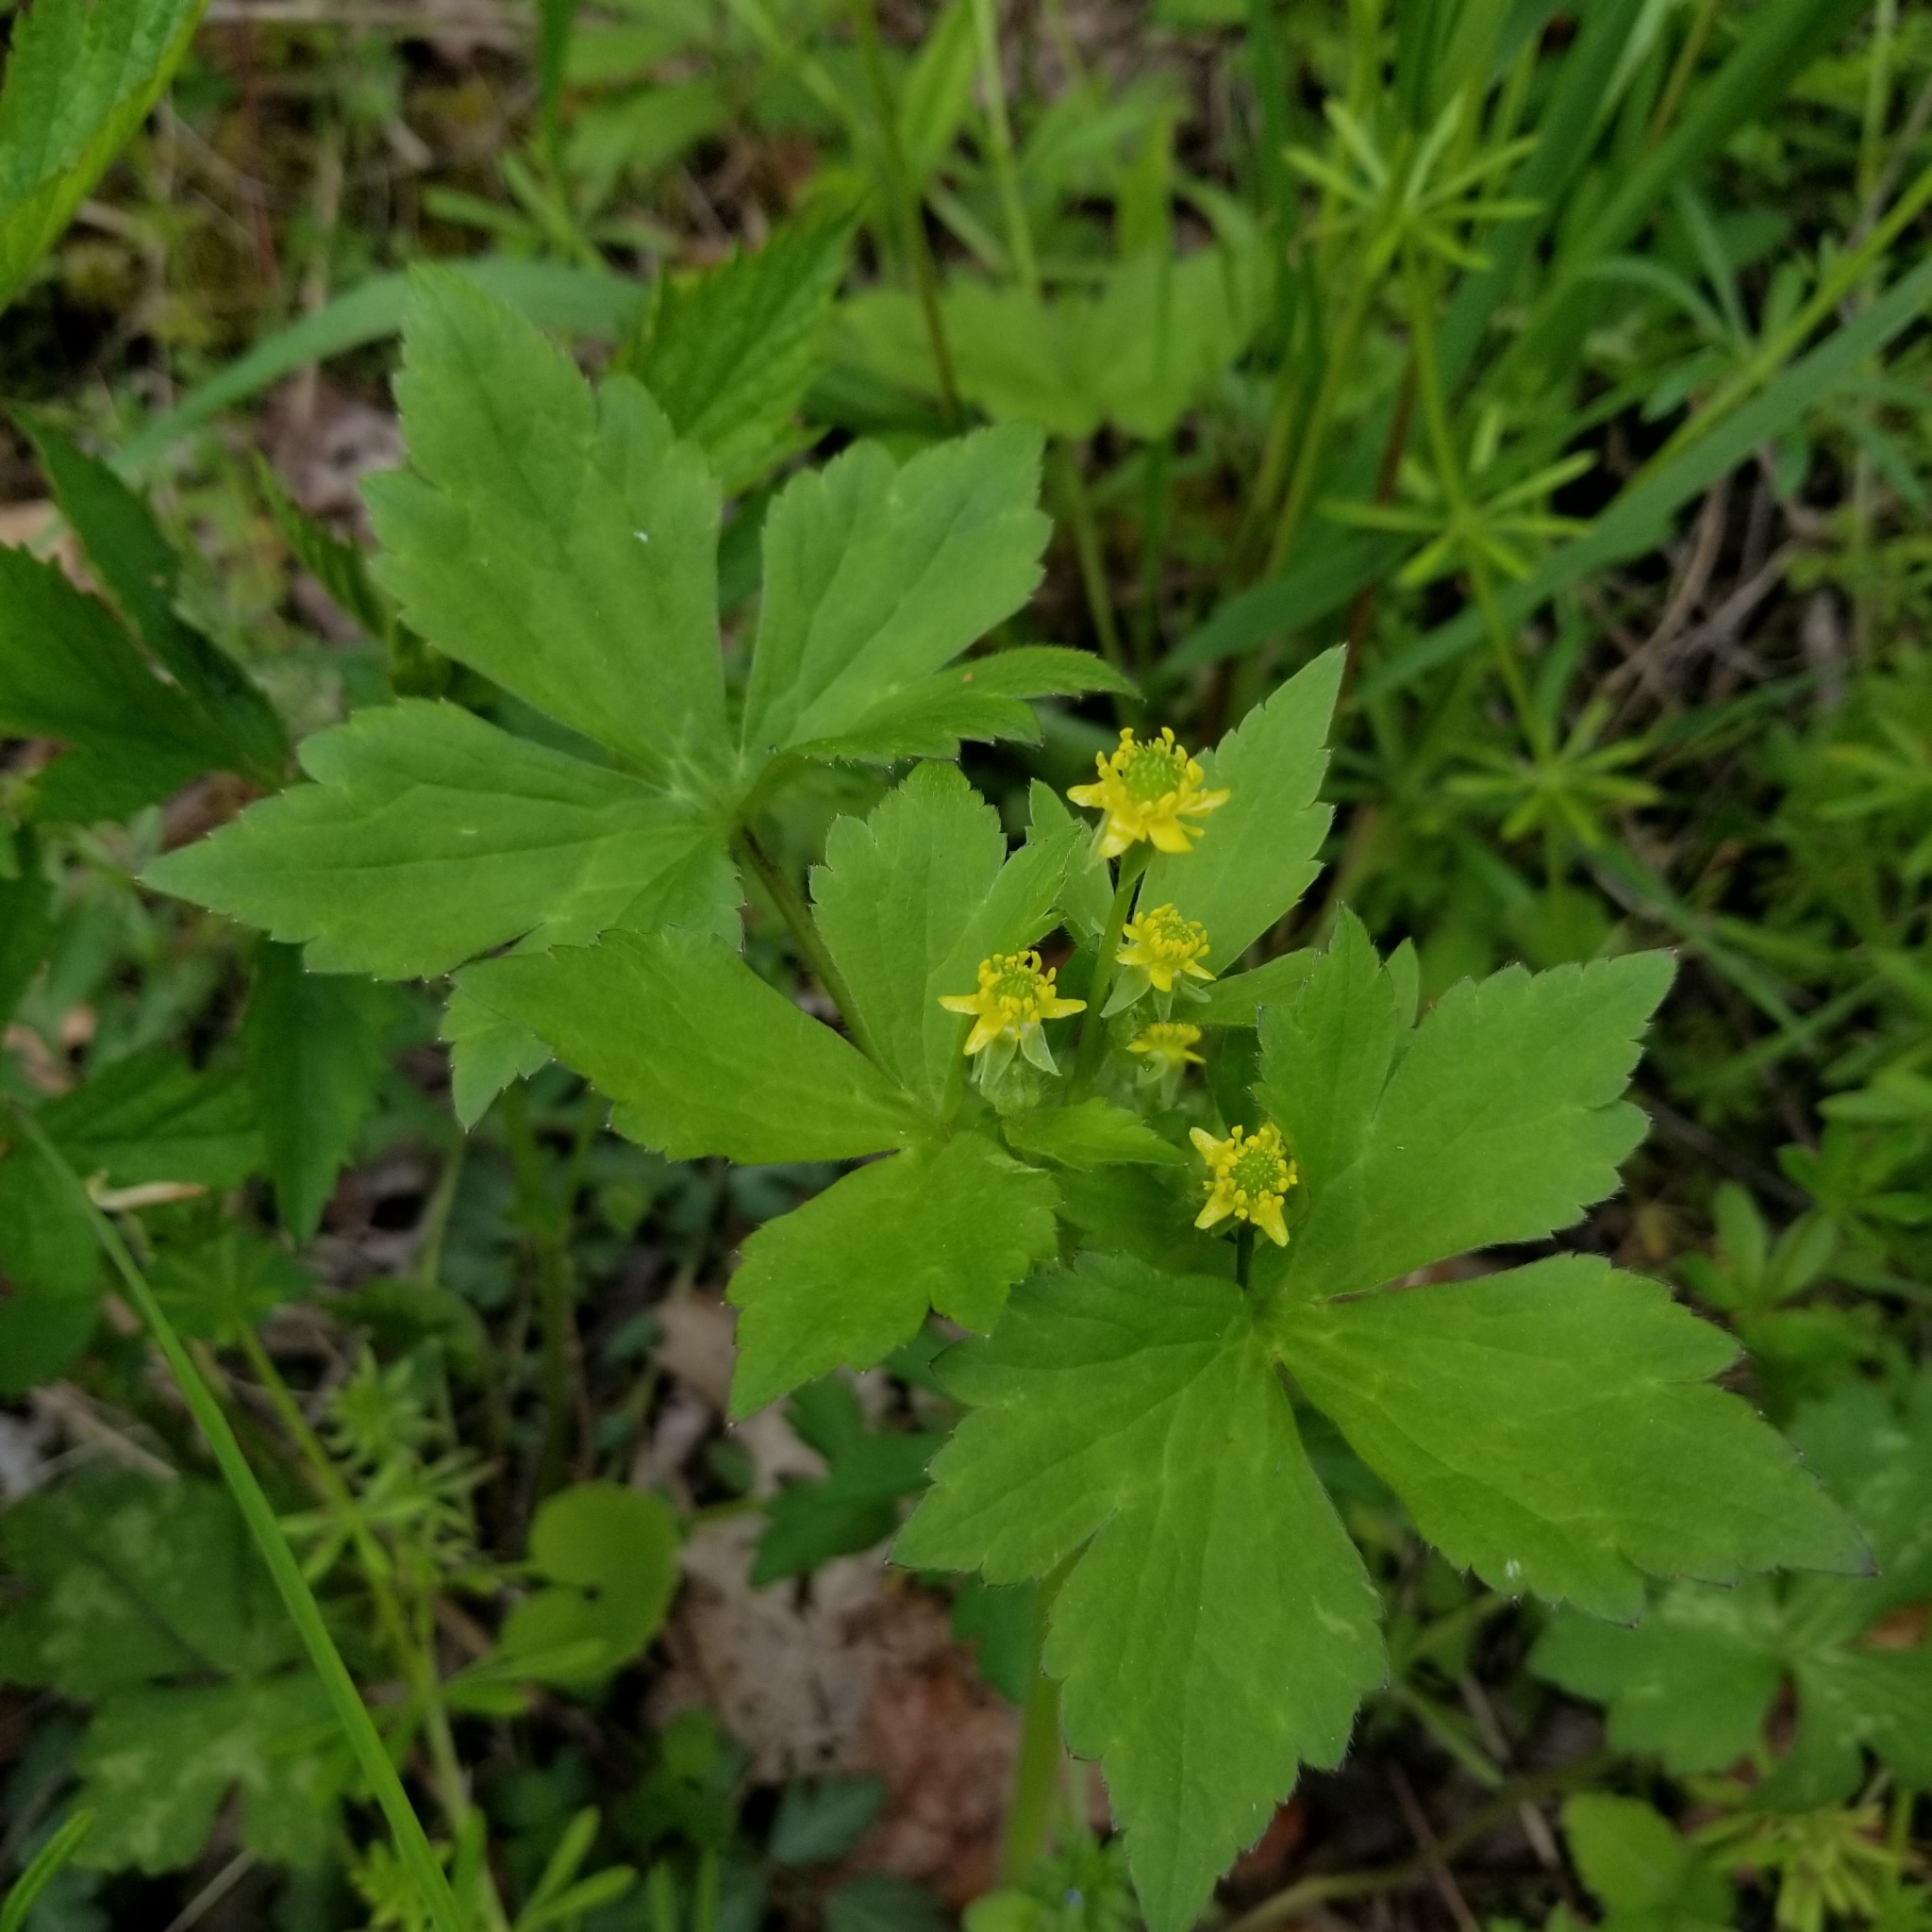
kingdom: Plantae
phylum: Tracheophyta
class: Magnoliopsida
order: Ranunculales
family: Ranunculaceae
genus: Ranunculus
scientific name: Ranunculus recurvatus
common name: Blisterwort
